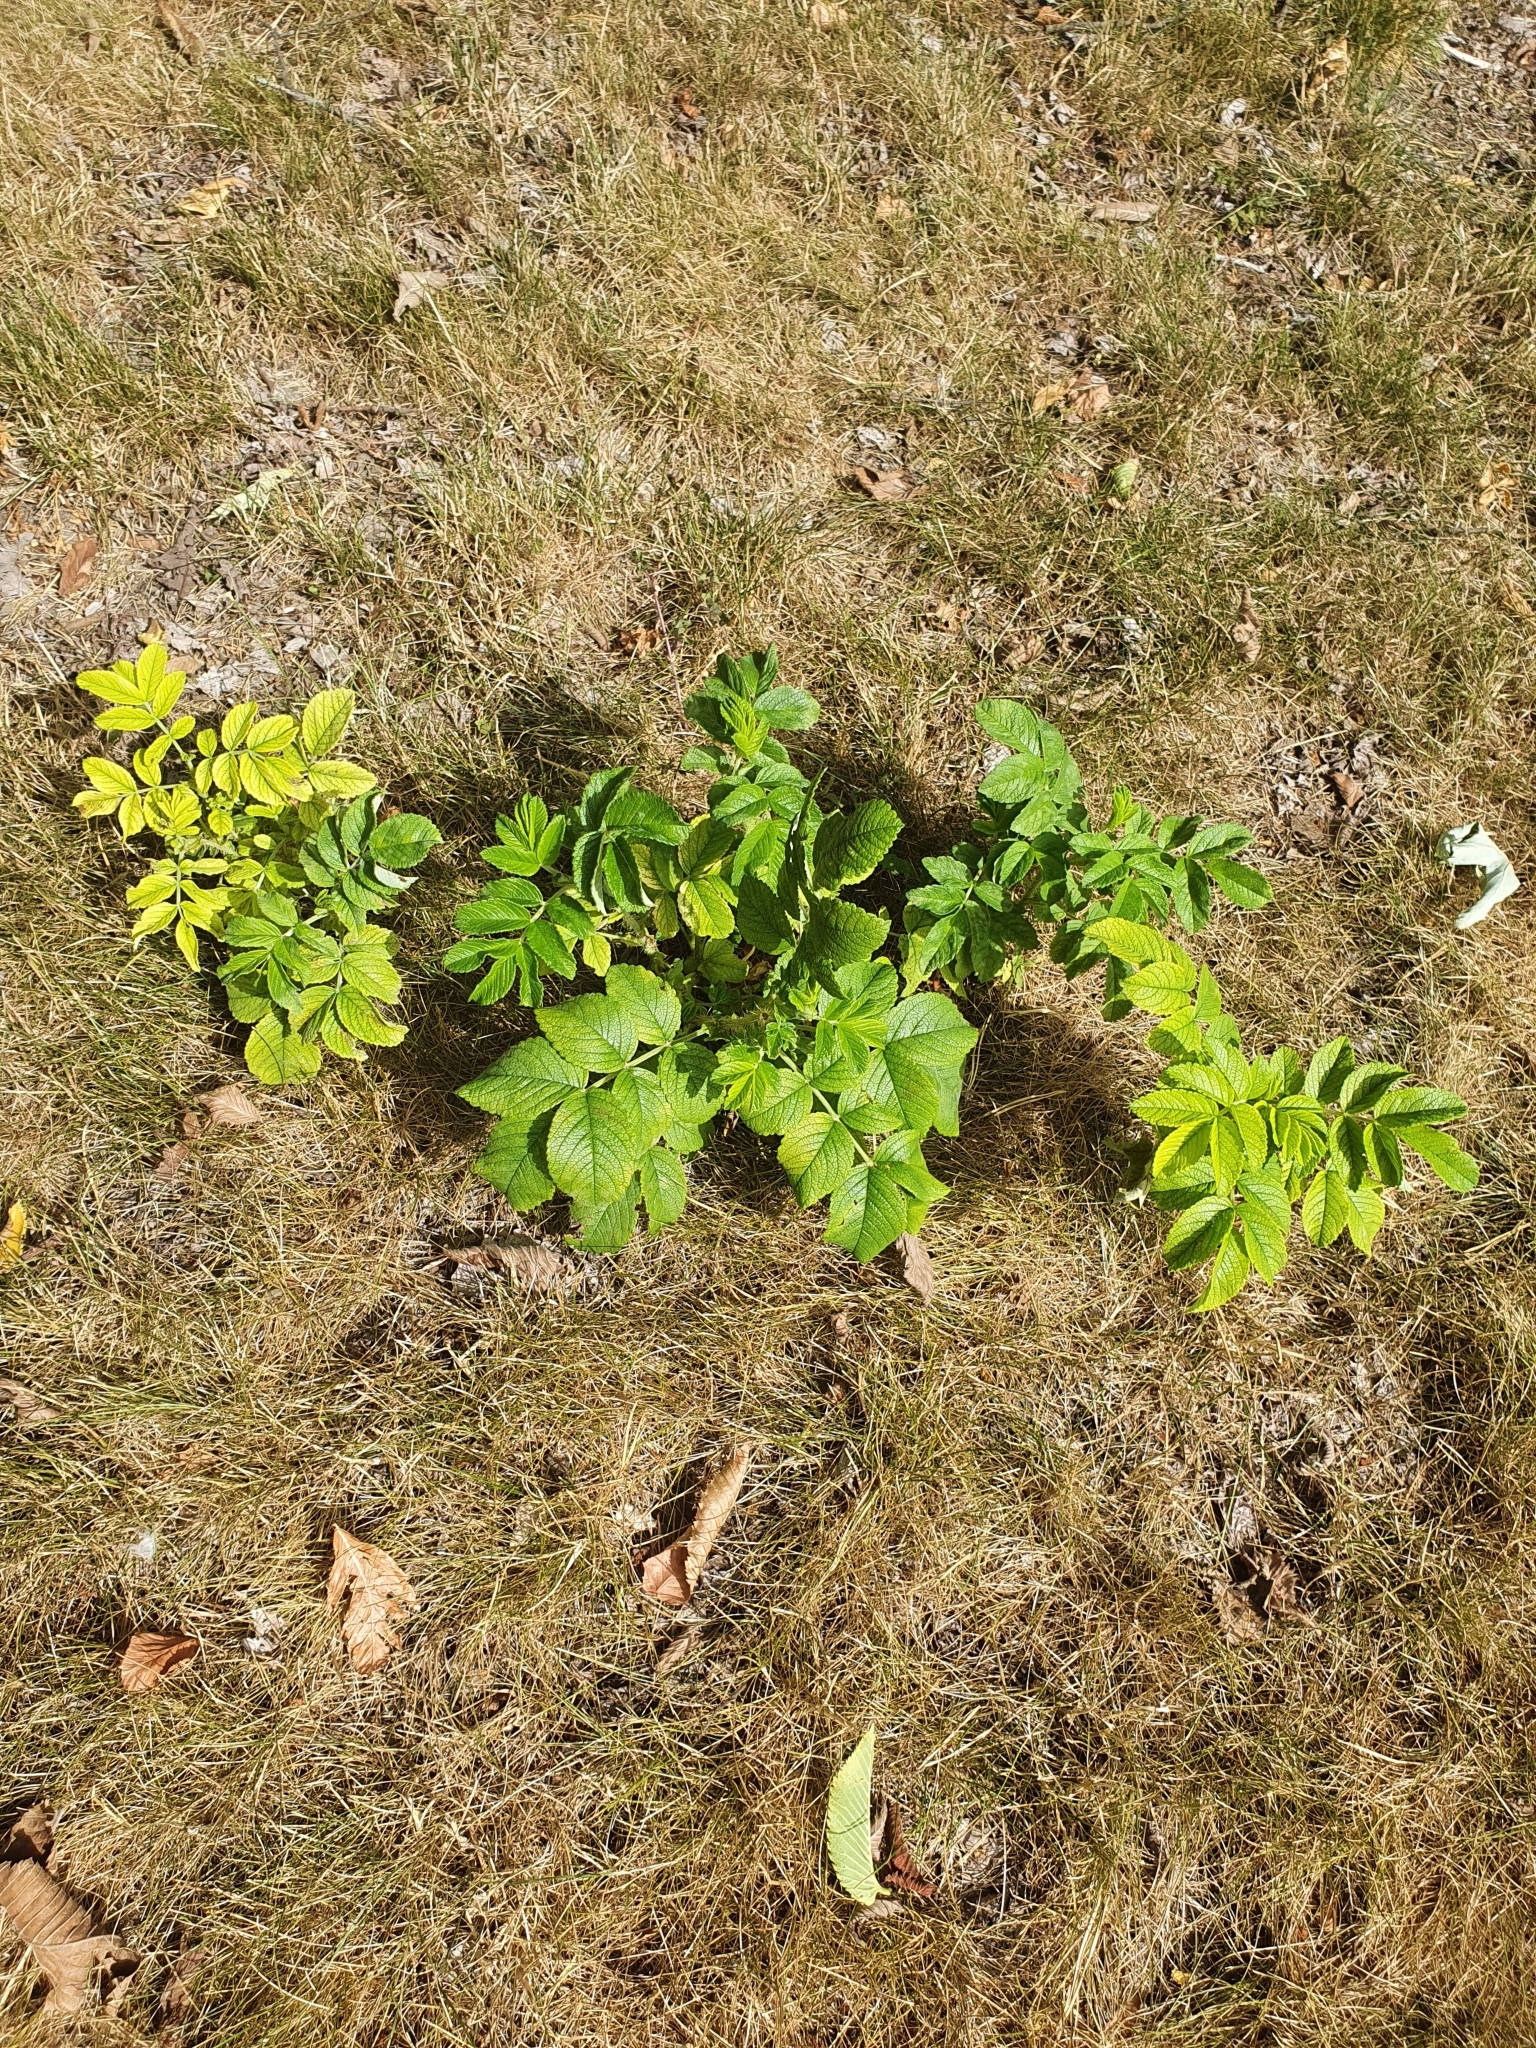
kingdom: Plantae
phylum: Tracheophyta
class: Magnoliopsida
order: Rosales
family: Rosaceae
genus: Rosa
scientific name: Rosa rugosa
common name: Japanese rose
